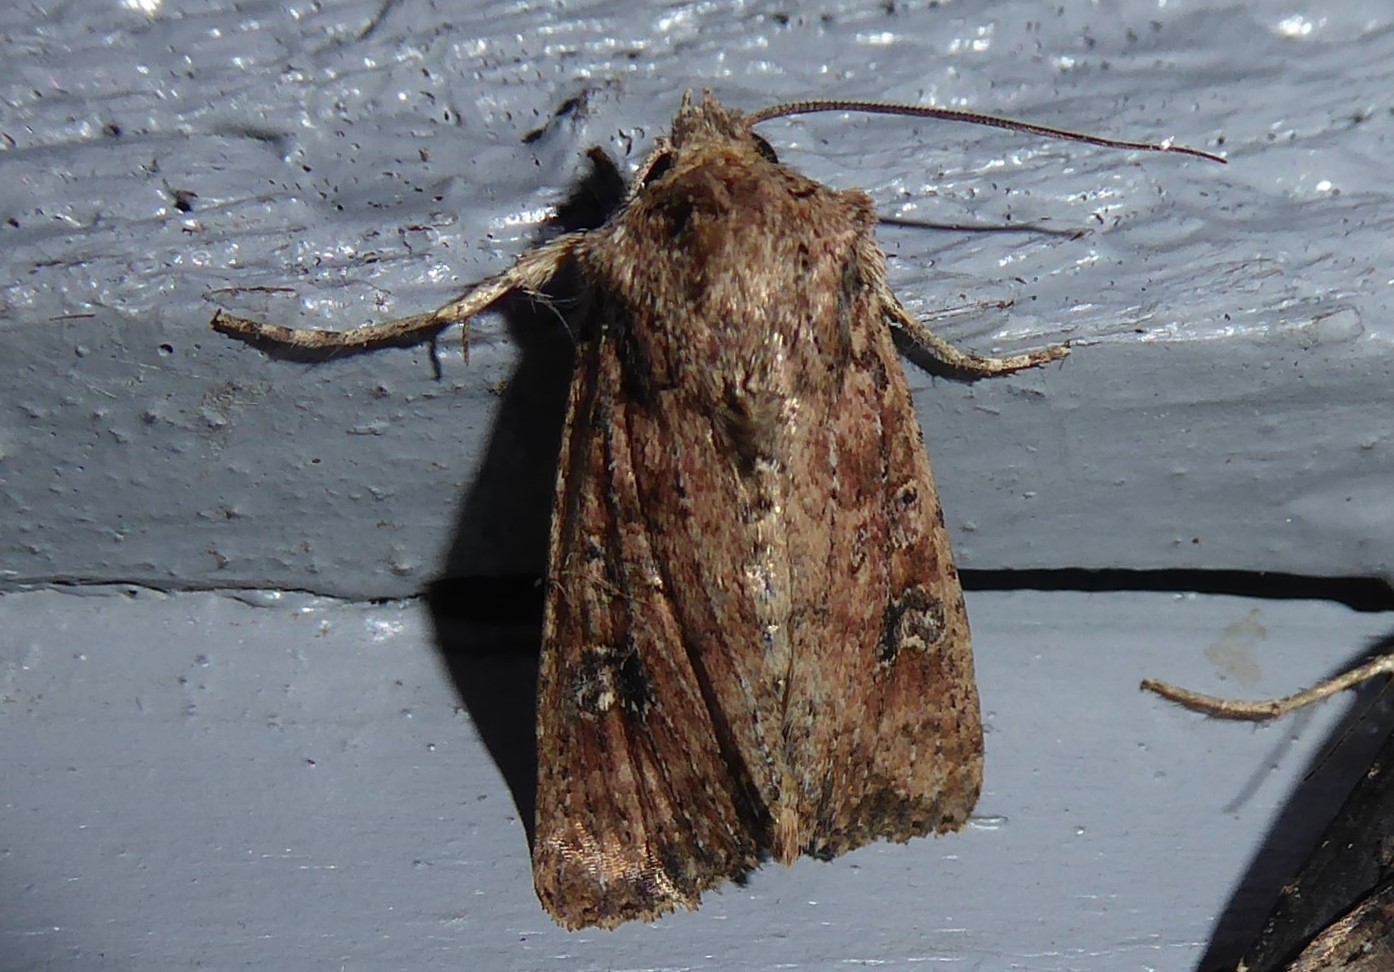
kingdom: Animalia
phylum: Arthropoda
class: Insecta
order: Lepidoptera
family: Noctuidae
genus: Ichneutica
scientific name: Ichneutica morosa
